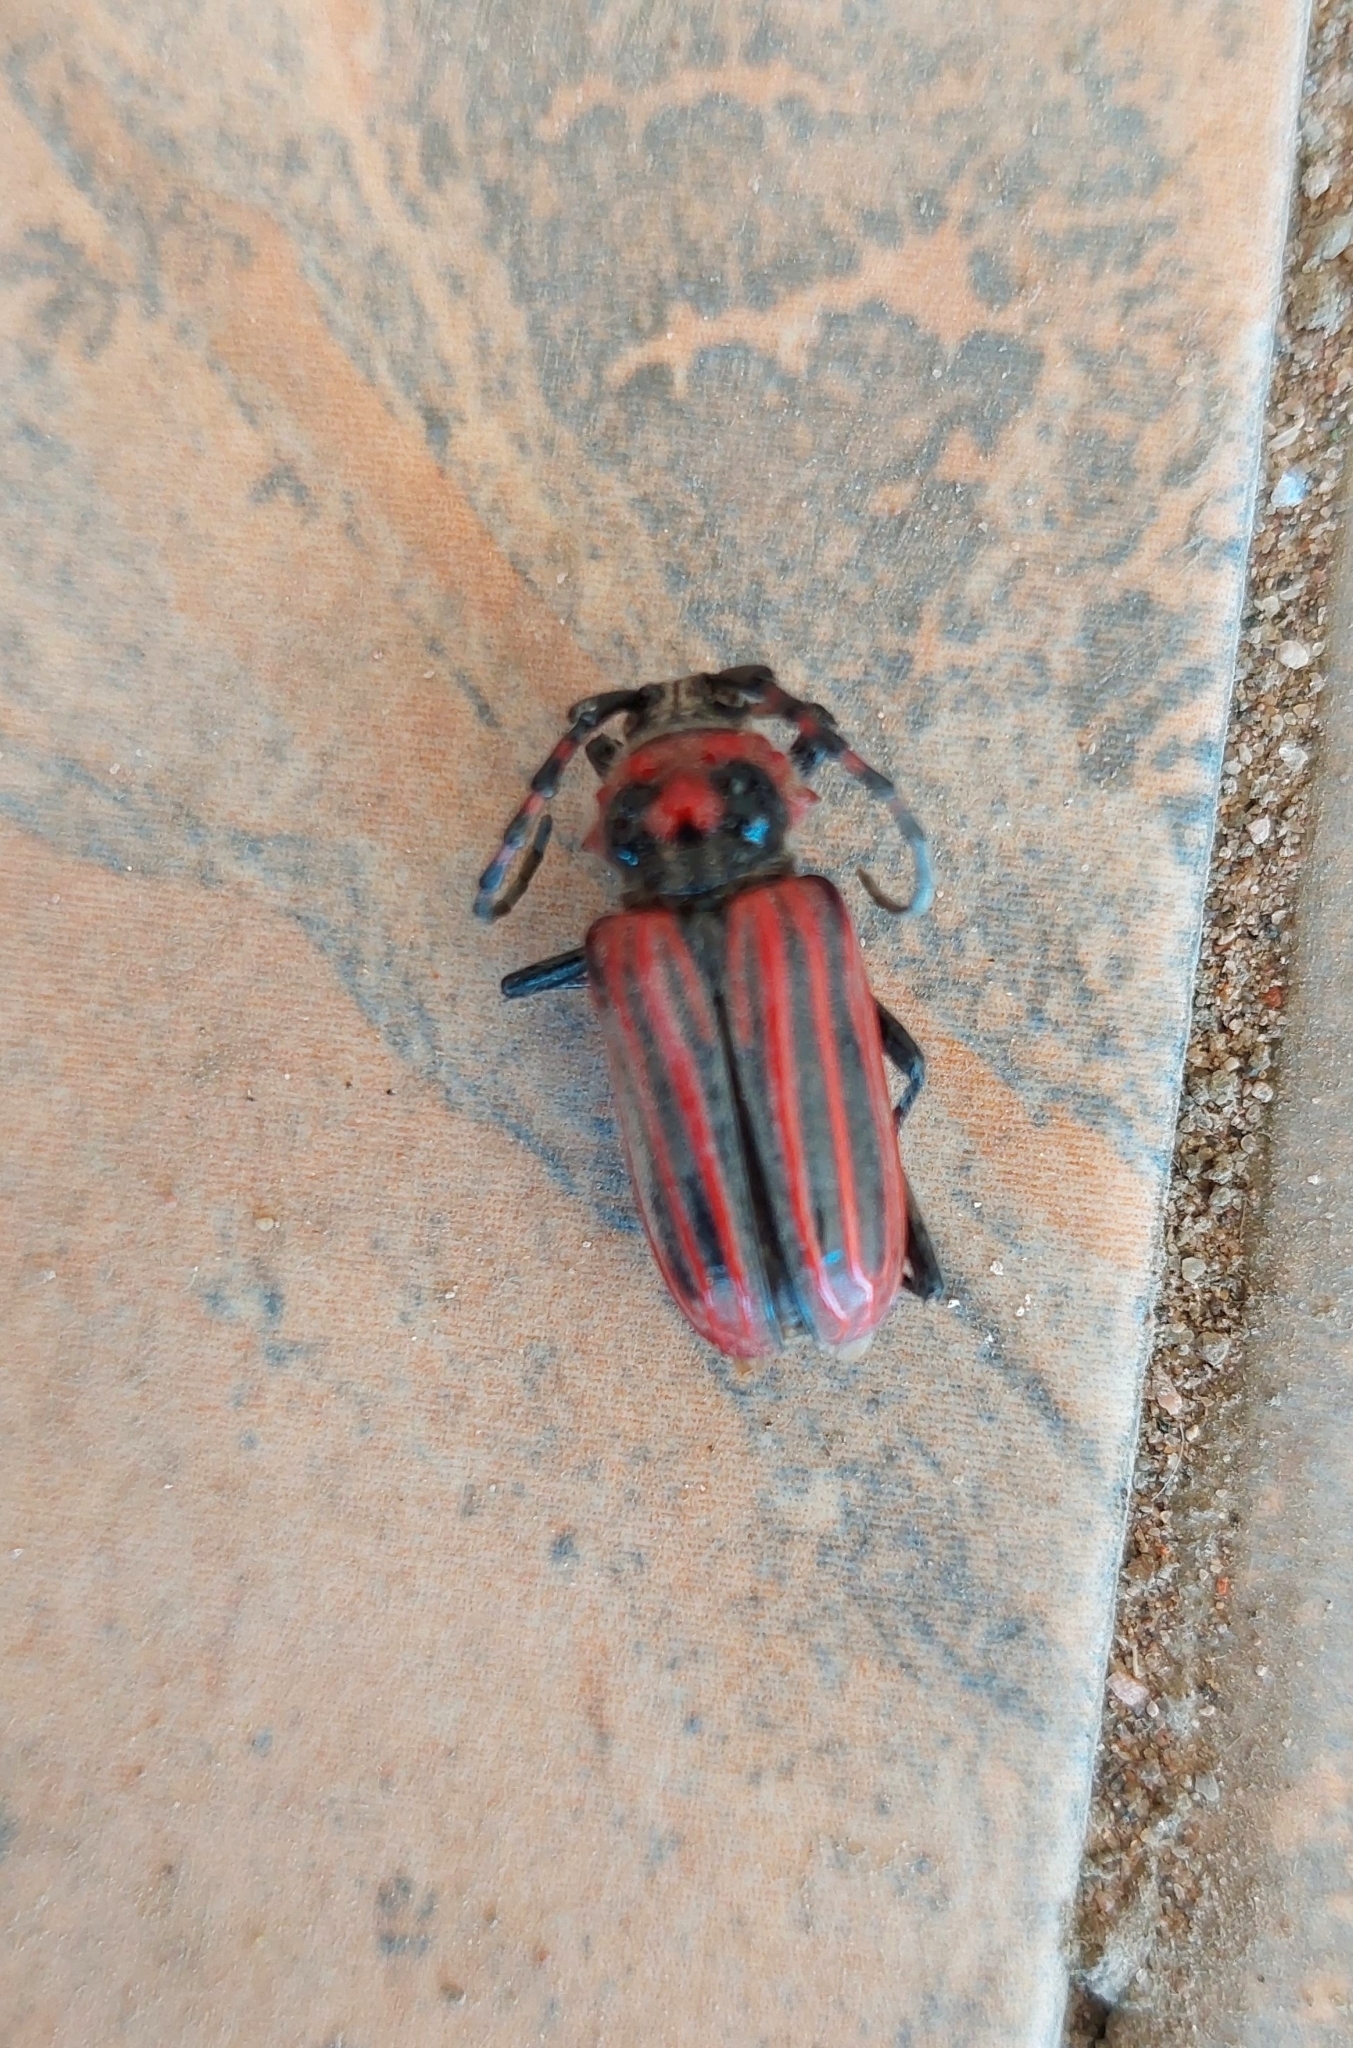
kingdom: Animalia
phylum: Arthropoda
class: Insecta
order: Coleoptera
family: Cerambycidae
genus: Eriocharis
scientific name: Eriocharis richardii
